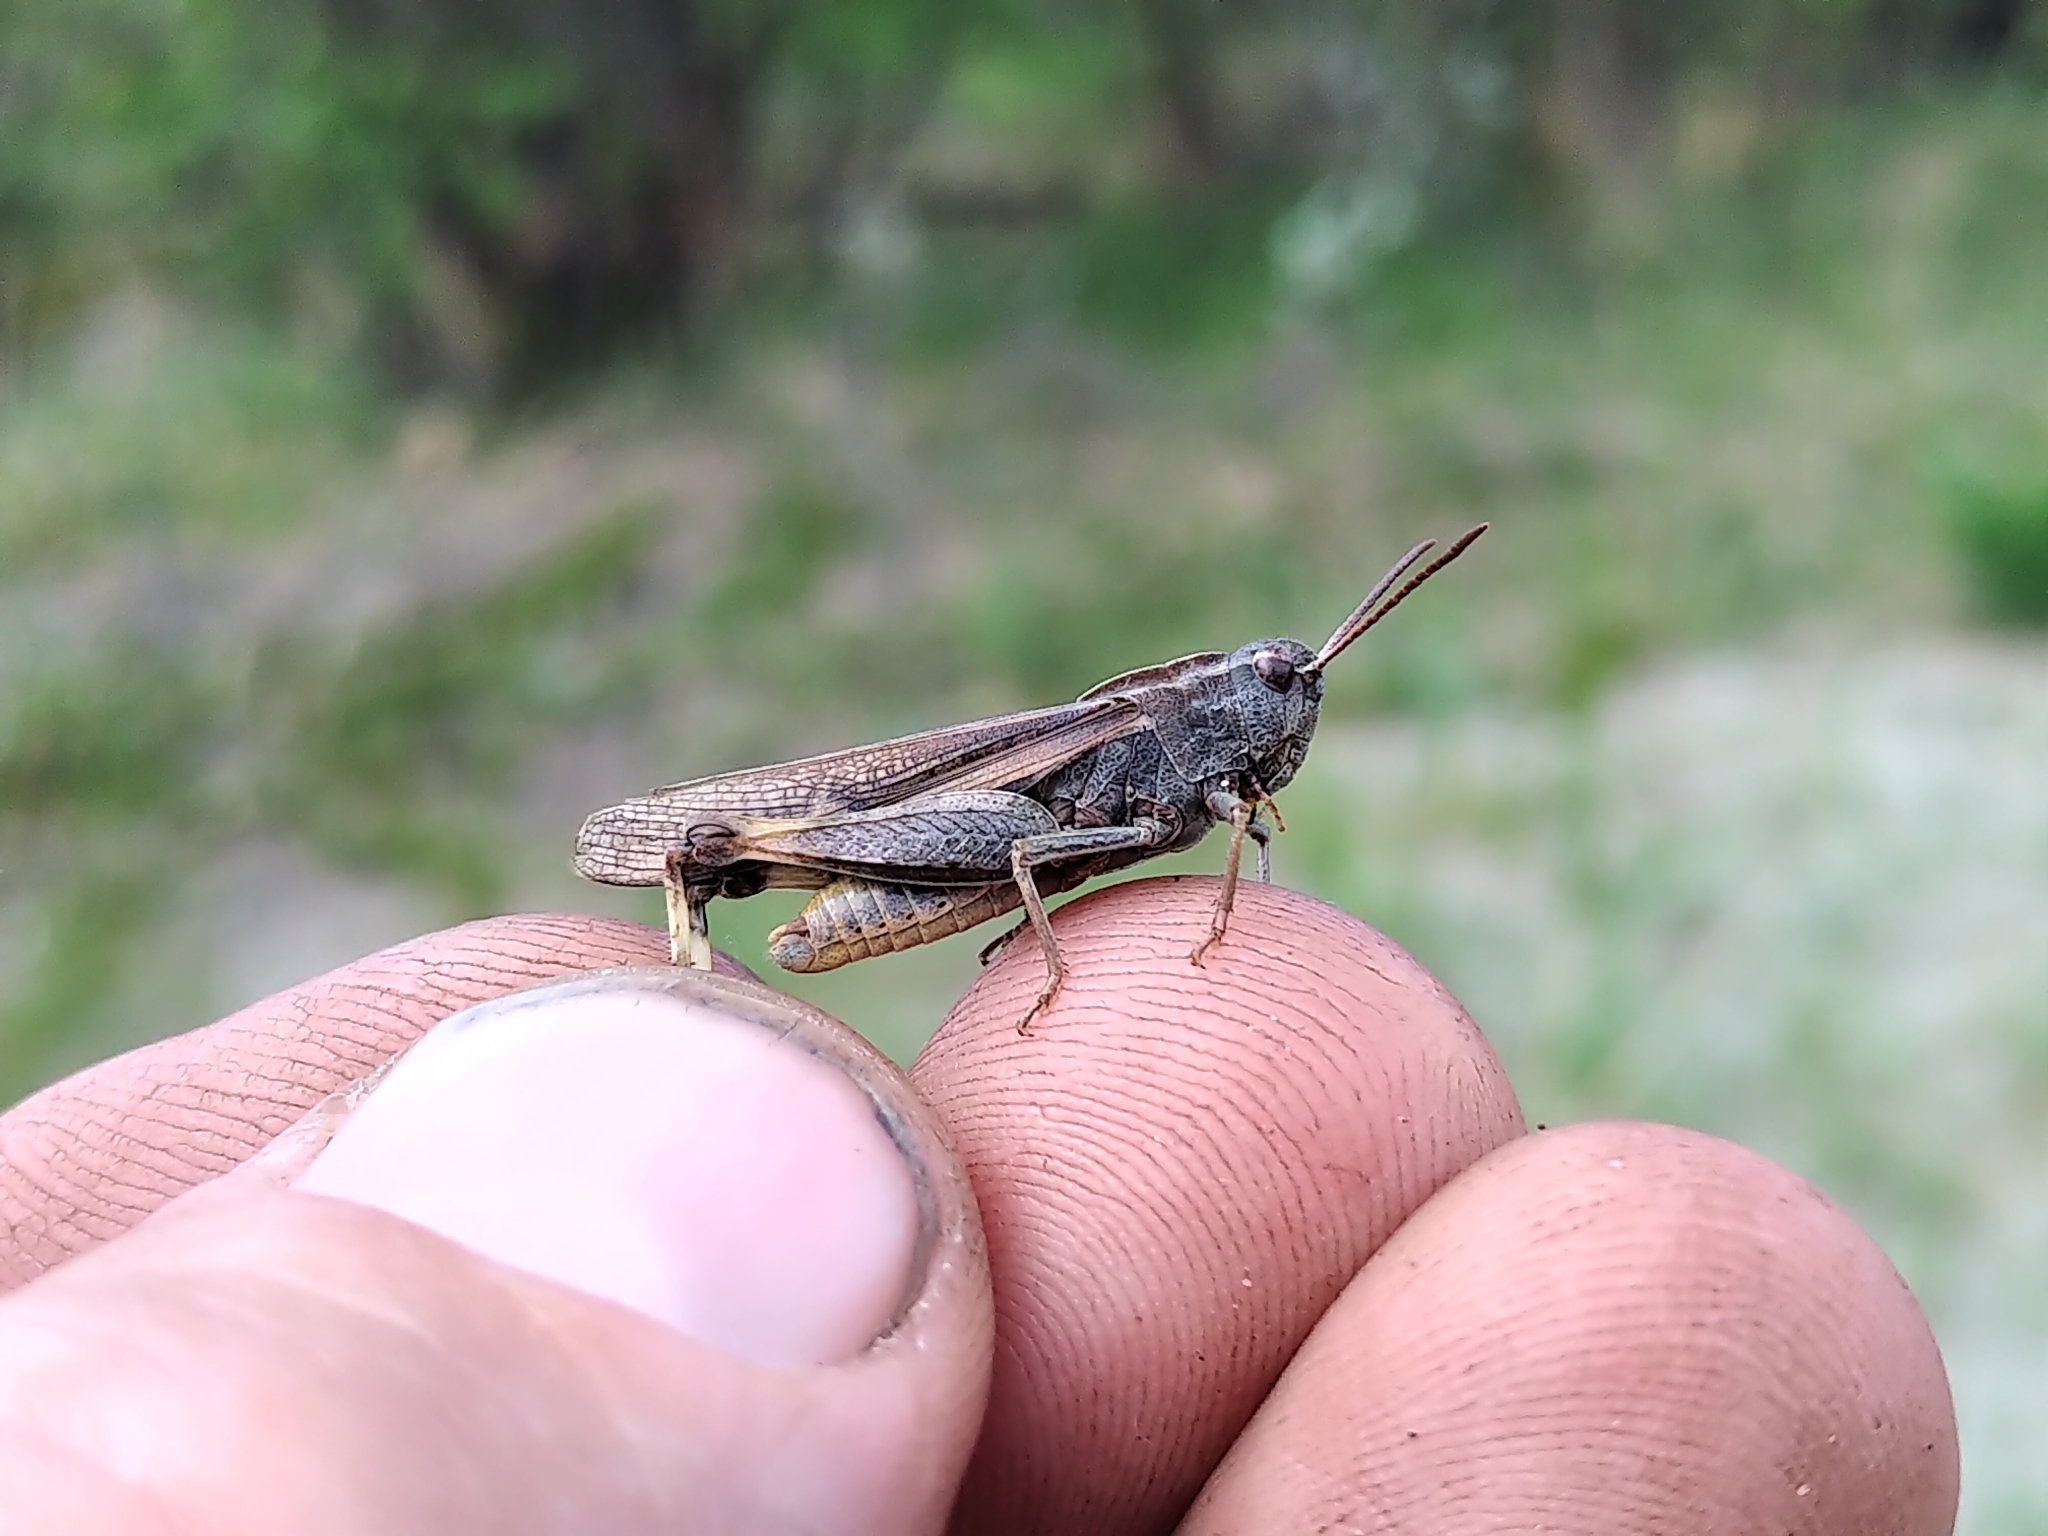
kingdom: Animalia
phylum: Arthropoda
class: Insecta
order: Orthoptera
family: Acrididae
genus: Chortophaga
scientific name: Chortophaga viridifasciata
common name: Green-striped grasshopper
